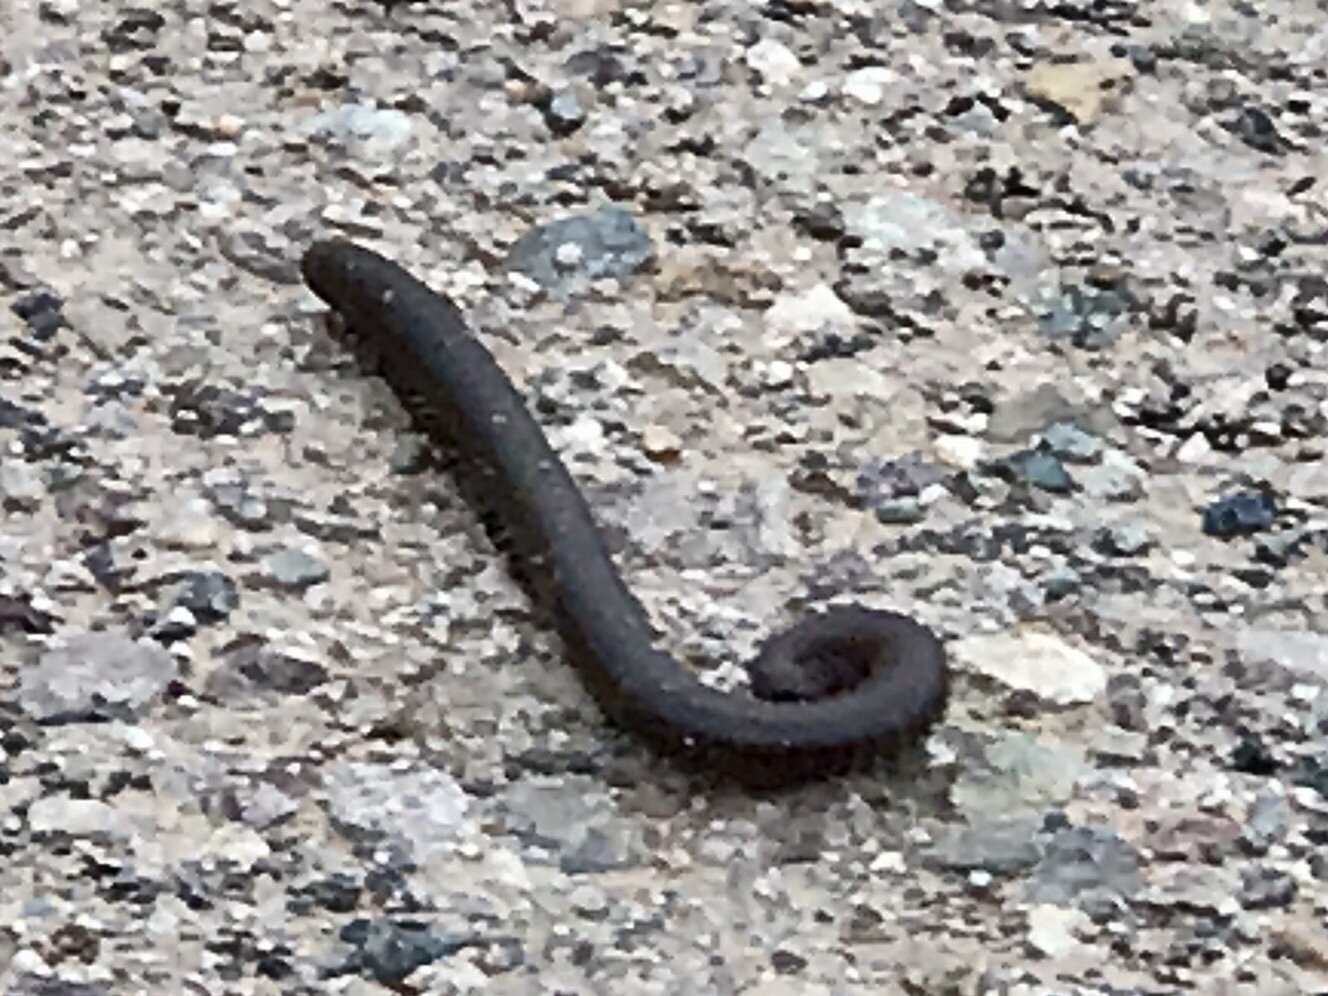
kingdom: Animalia
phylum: Arthropoda
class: Diplopoda
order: Spirostreptida
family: Spirostreptidae
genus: Orthoporus
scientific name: Orthoporus ornatus
